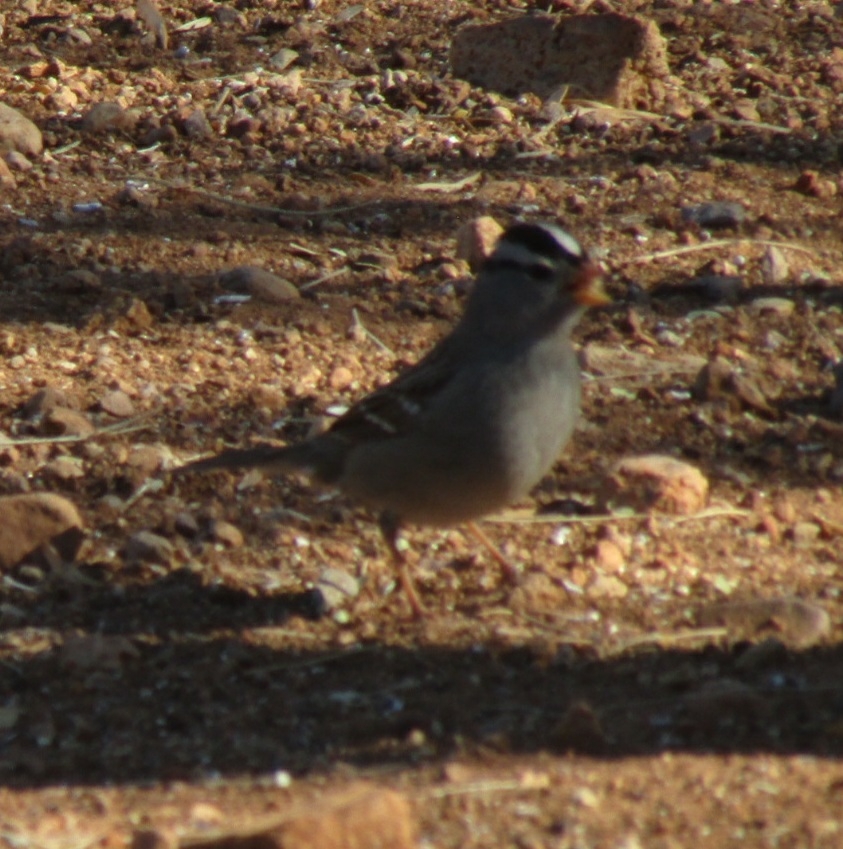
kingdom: Animalia
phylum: Chordata
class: Aves
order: Passeriformes
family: Passerellidae
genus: Zonotrichia
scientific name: Zonotrichia leucophrys
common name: White-crowned sparrow
